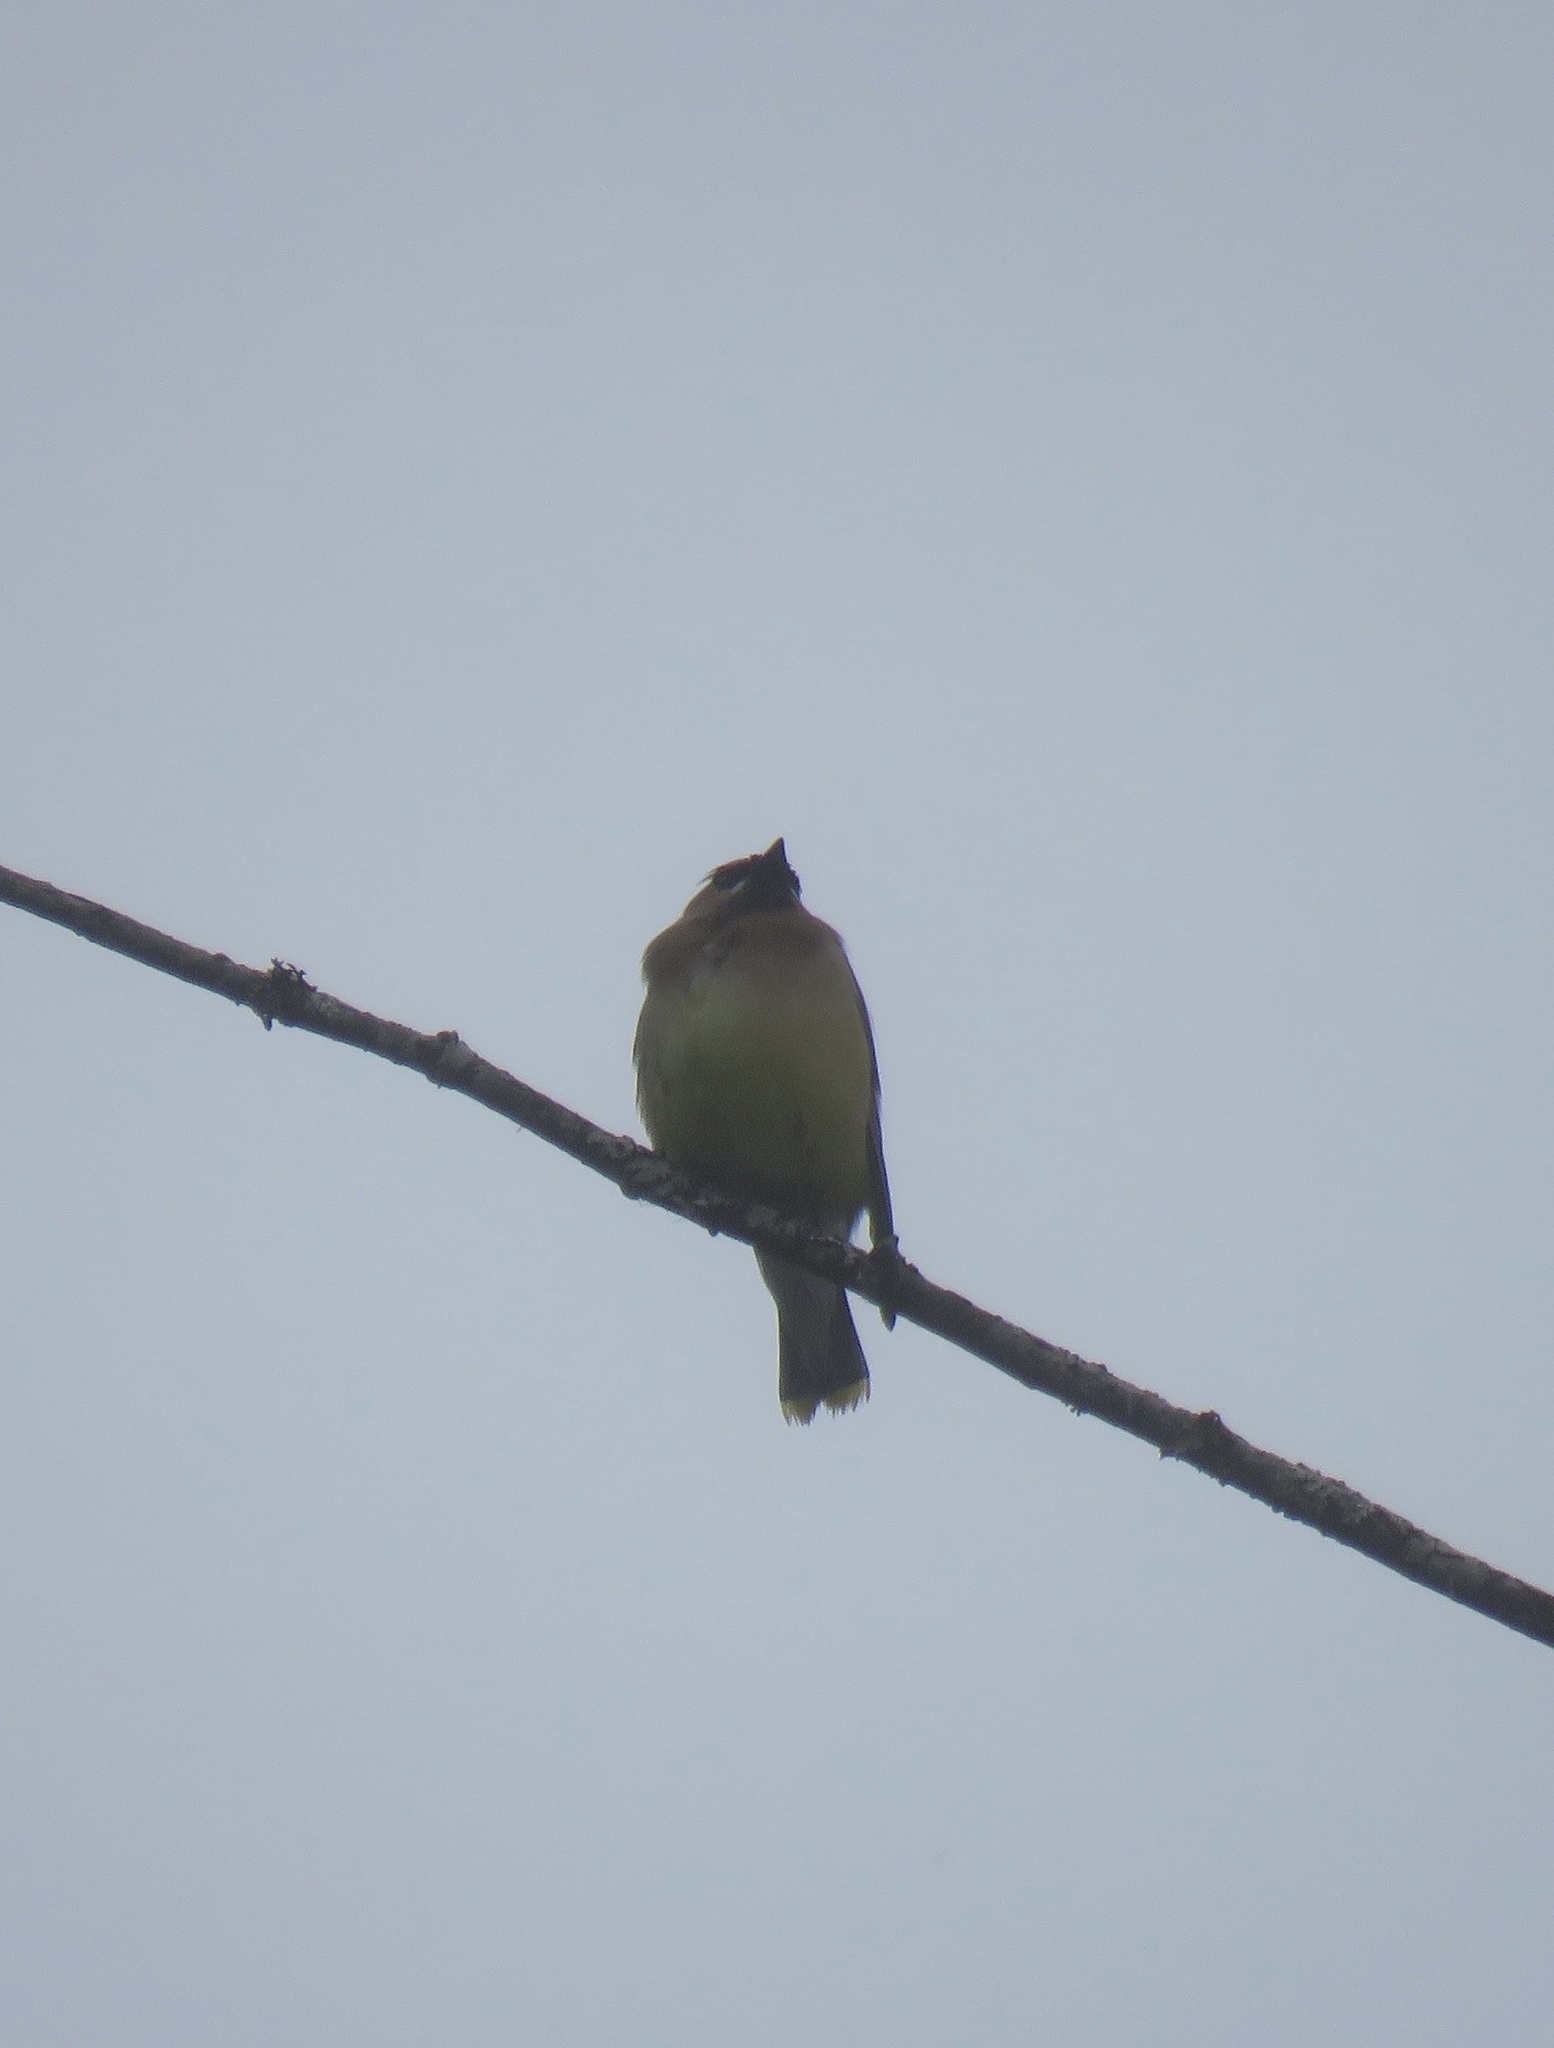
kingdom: Animalia
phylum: Chordata
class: Aves
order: Passeriformes
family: Bombycillidae
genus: Bombycilla
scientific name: Bombycilla cedrorum
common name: Cedar waxwing
